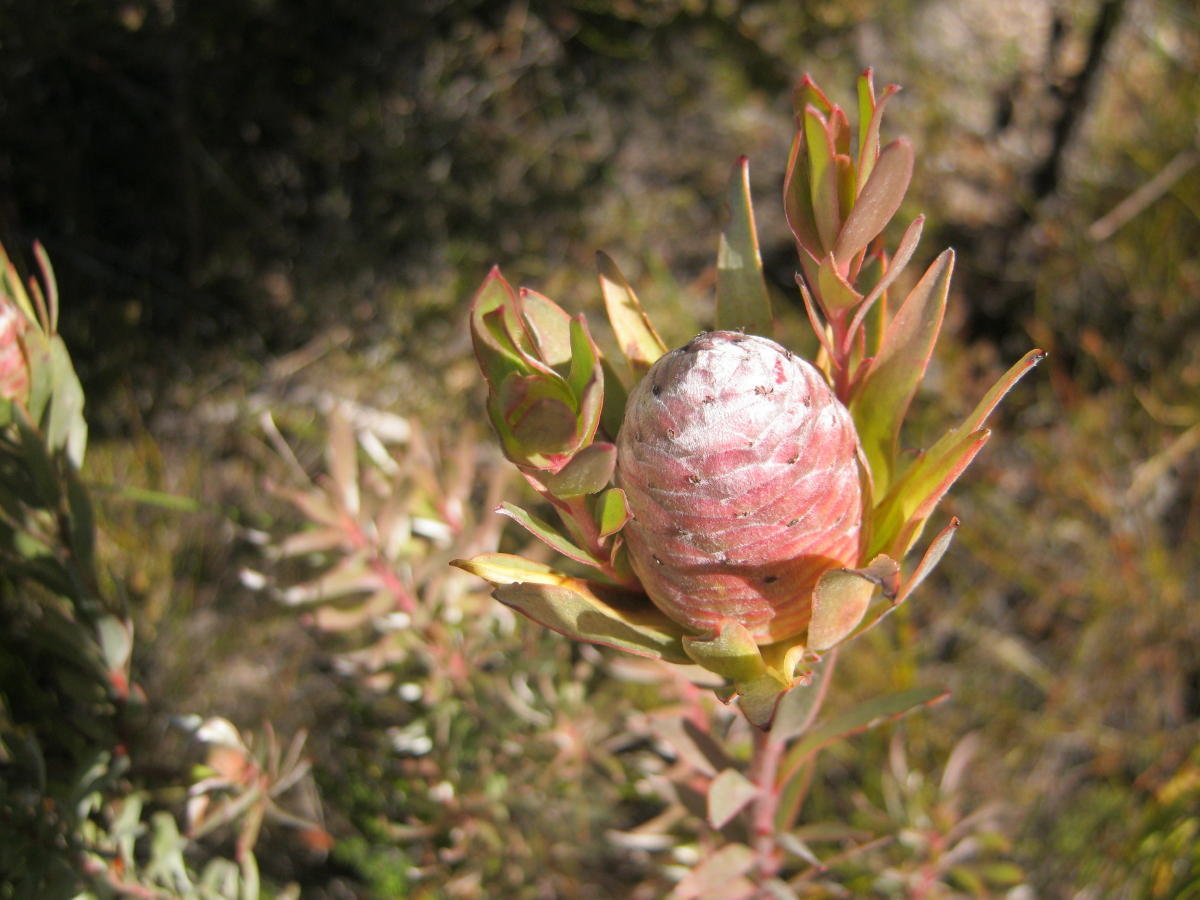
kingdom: Plantae
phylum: Tracheophyta
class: Magnoliopsida
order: Proteales
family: Proteaceae
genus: Leucadendron
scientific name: Leucadendron uliginosum
